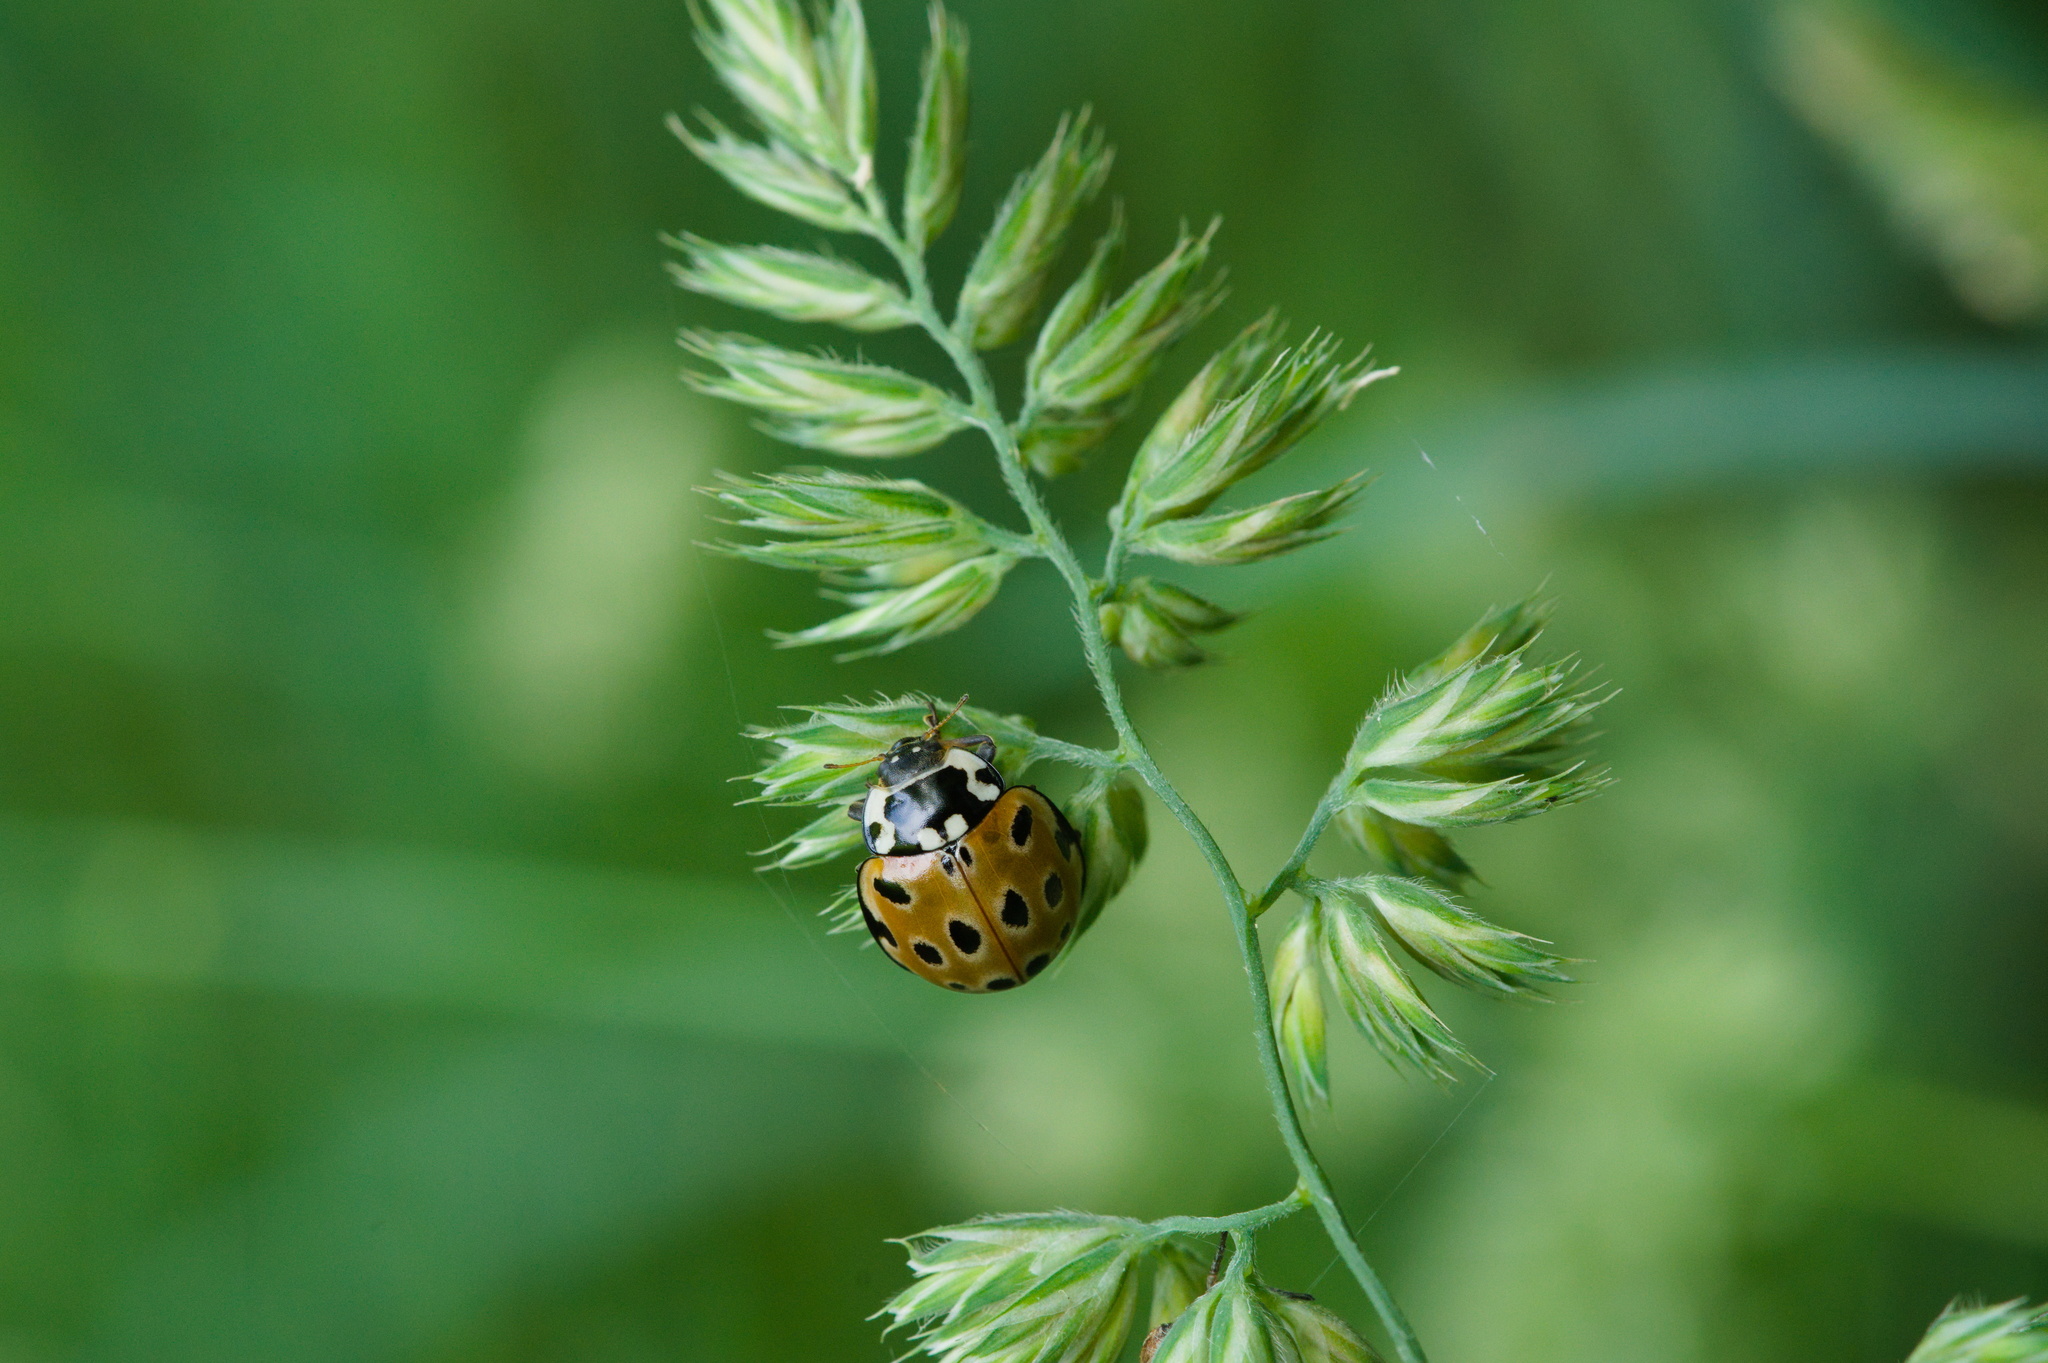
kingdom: Animalia
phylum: Arthropoda
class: Insecta
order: Coleoptera
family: Coccinellidae
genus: Anatis
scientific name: Anatis ocellata
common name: Eyed ladybird
